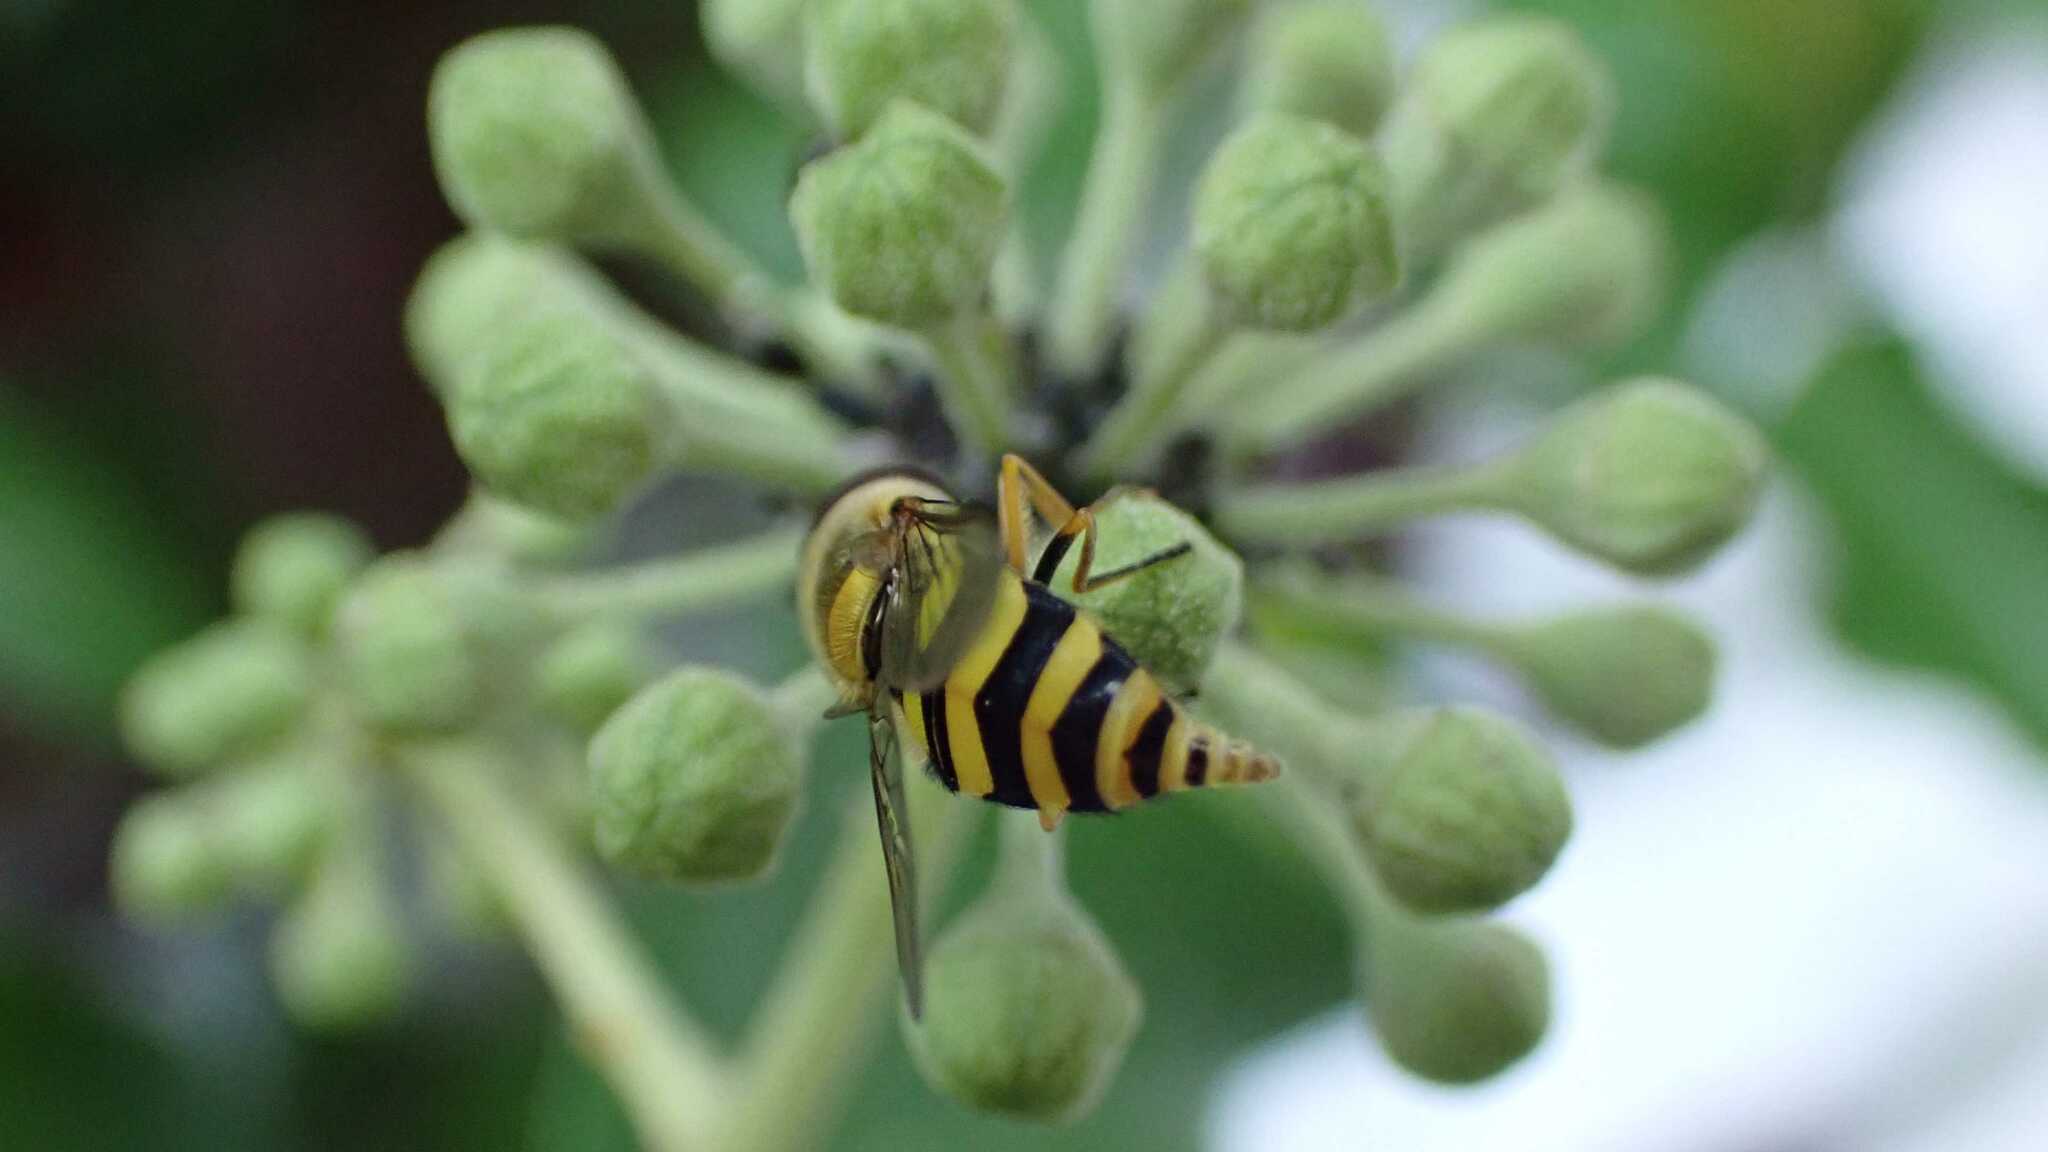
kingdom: Animalia
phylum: Arthropoda
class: Insecta
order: Diptera
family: Syrphidae
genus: Syrphus
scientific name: Syrphus
